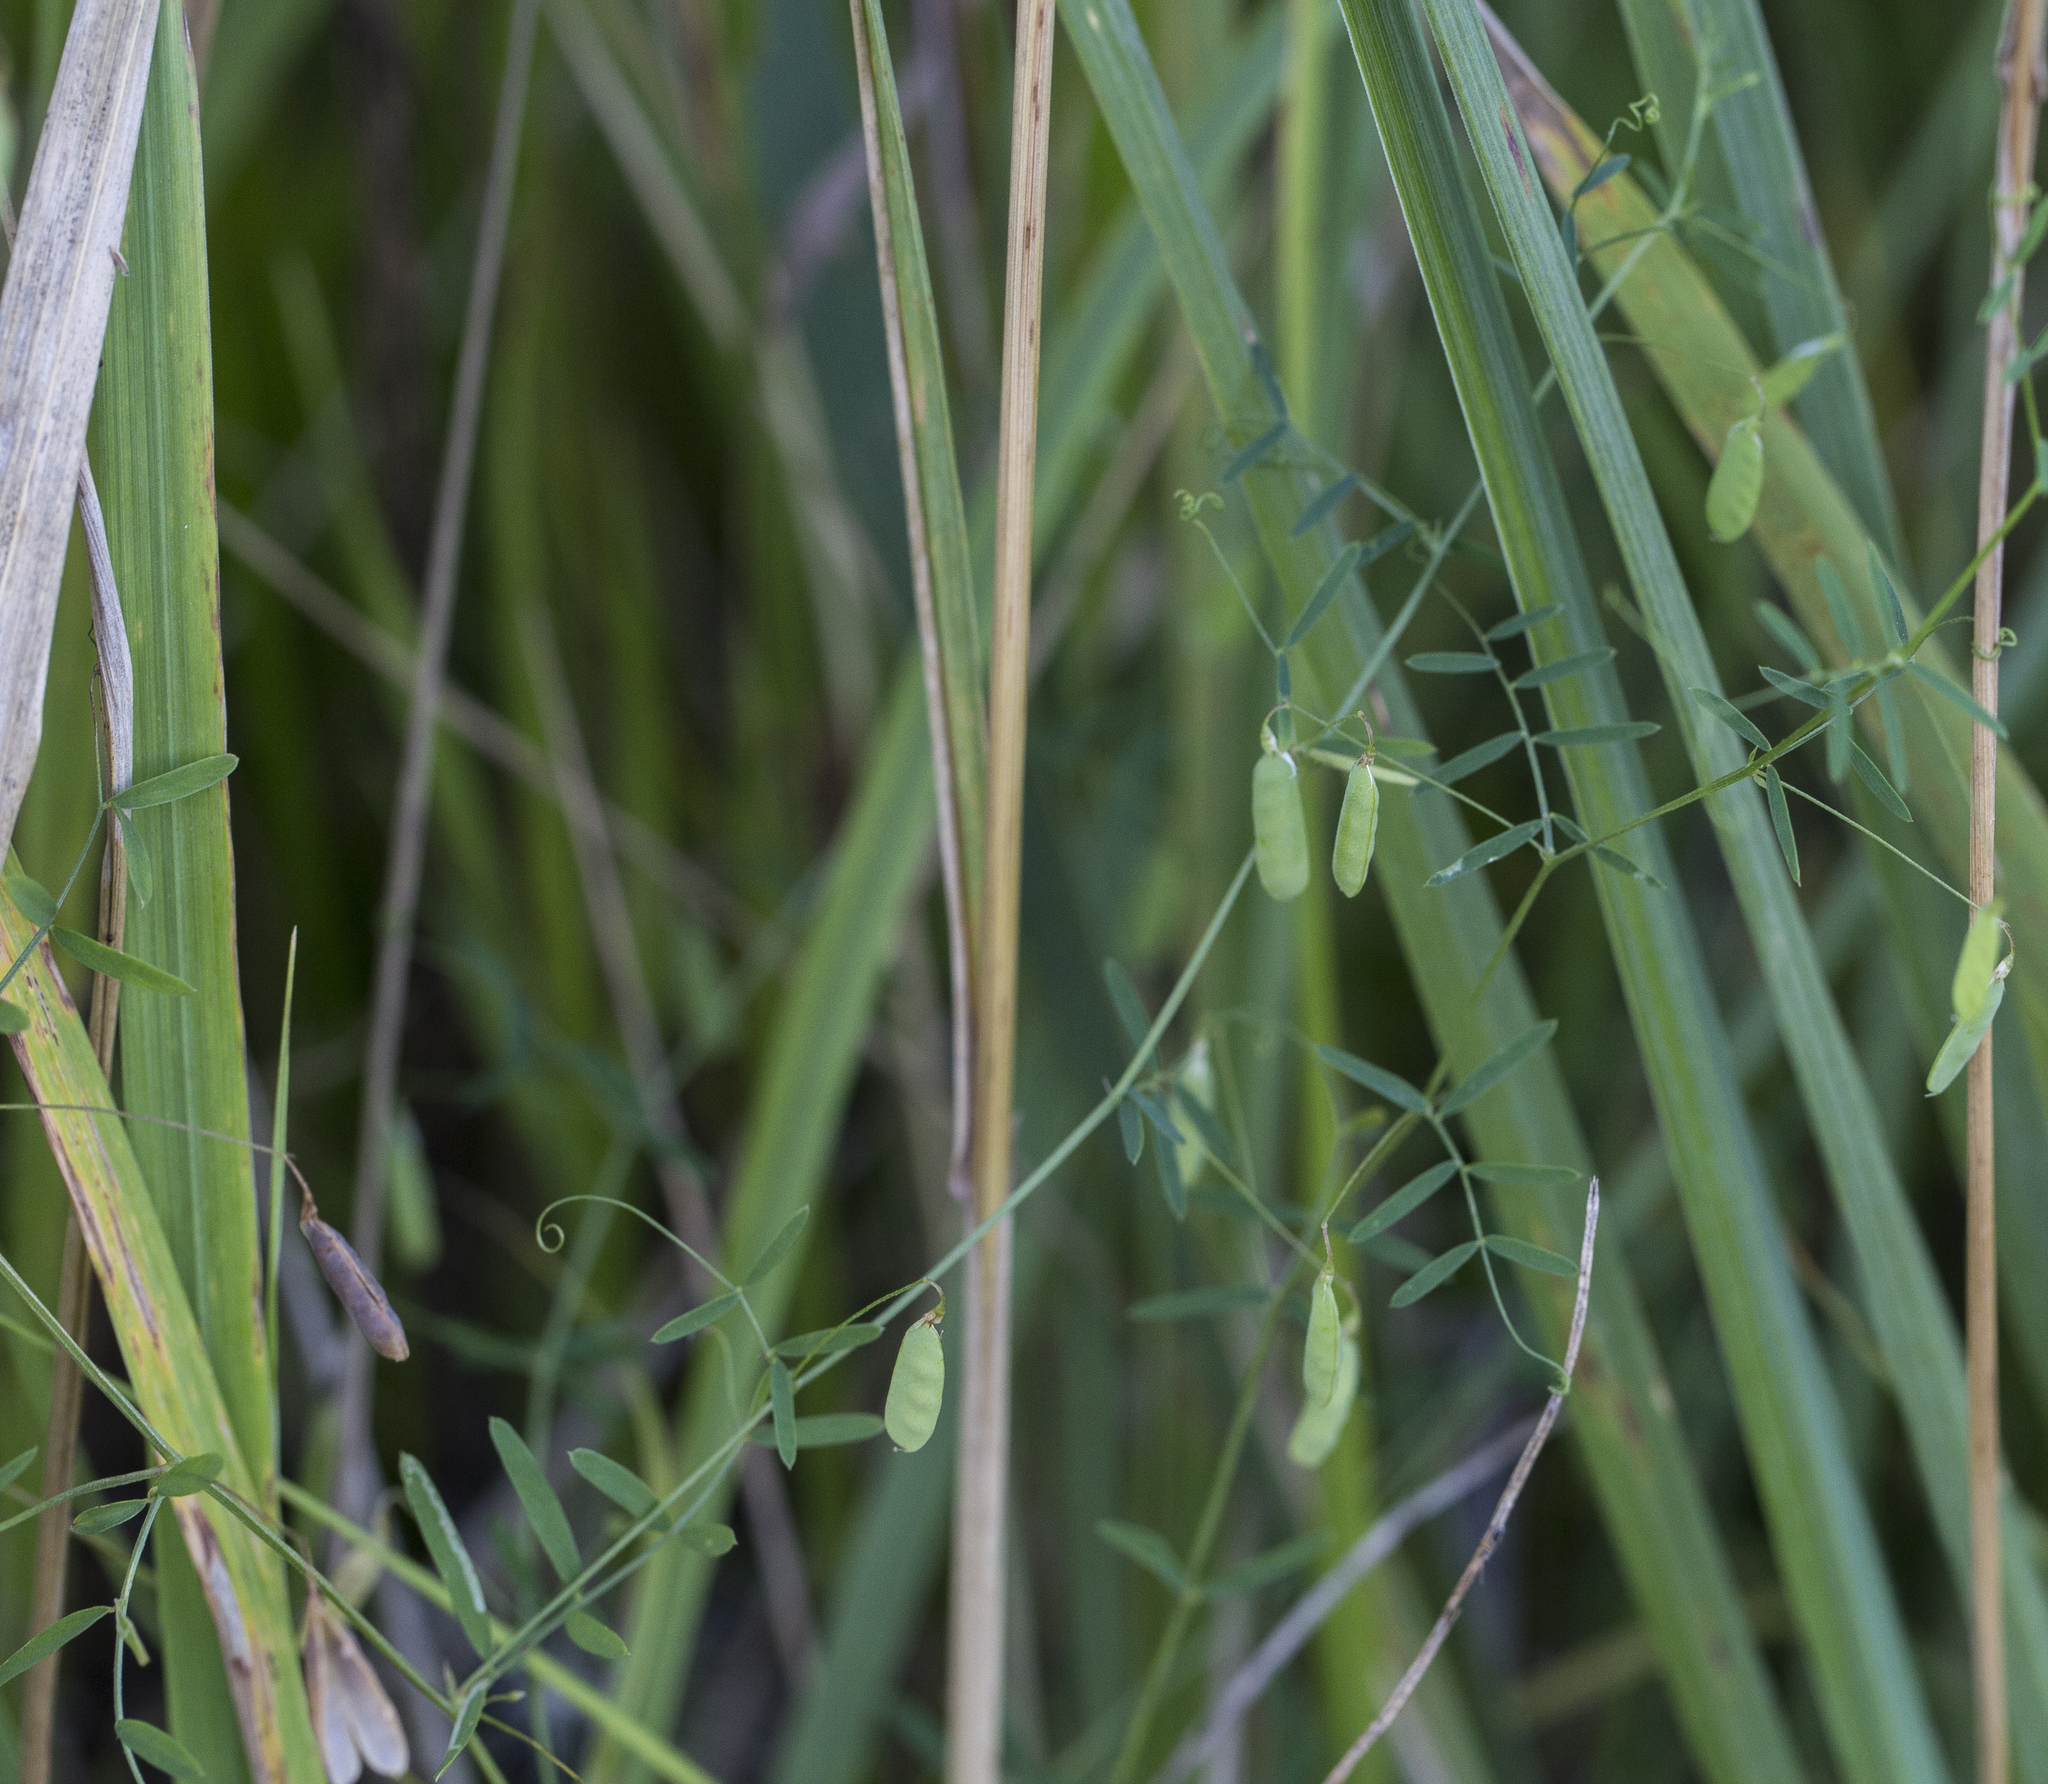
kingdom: Plantae
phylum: Tracheophyta
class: Magnoliopsida
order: Fabales
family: Fabaceae
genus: Vicia
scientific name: Vicia tetrasperma
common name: Smooth tare
